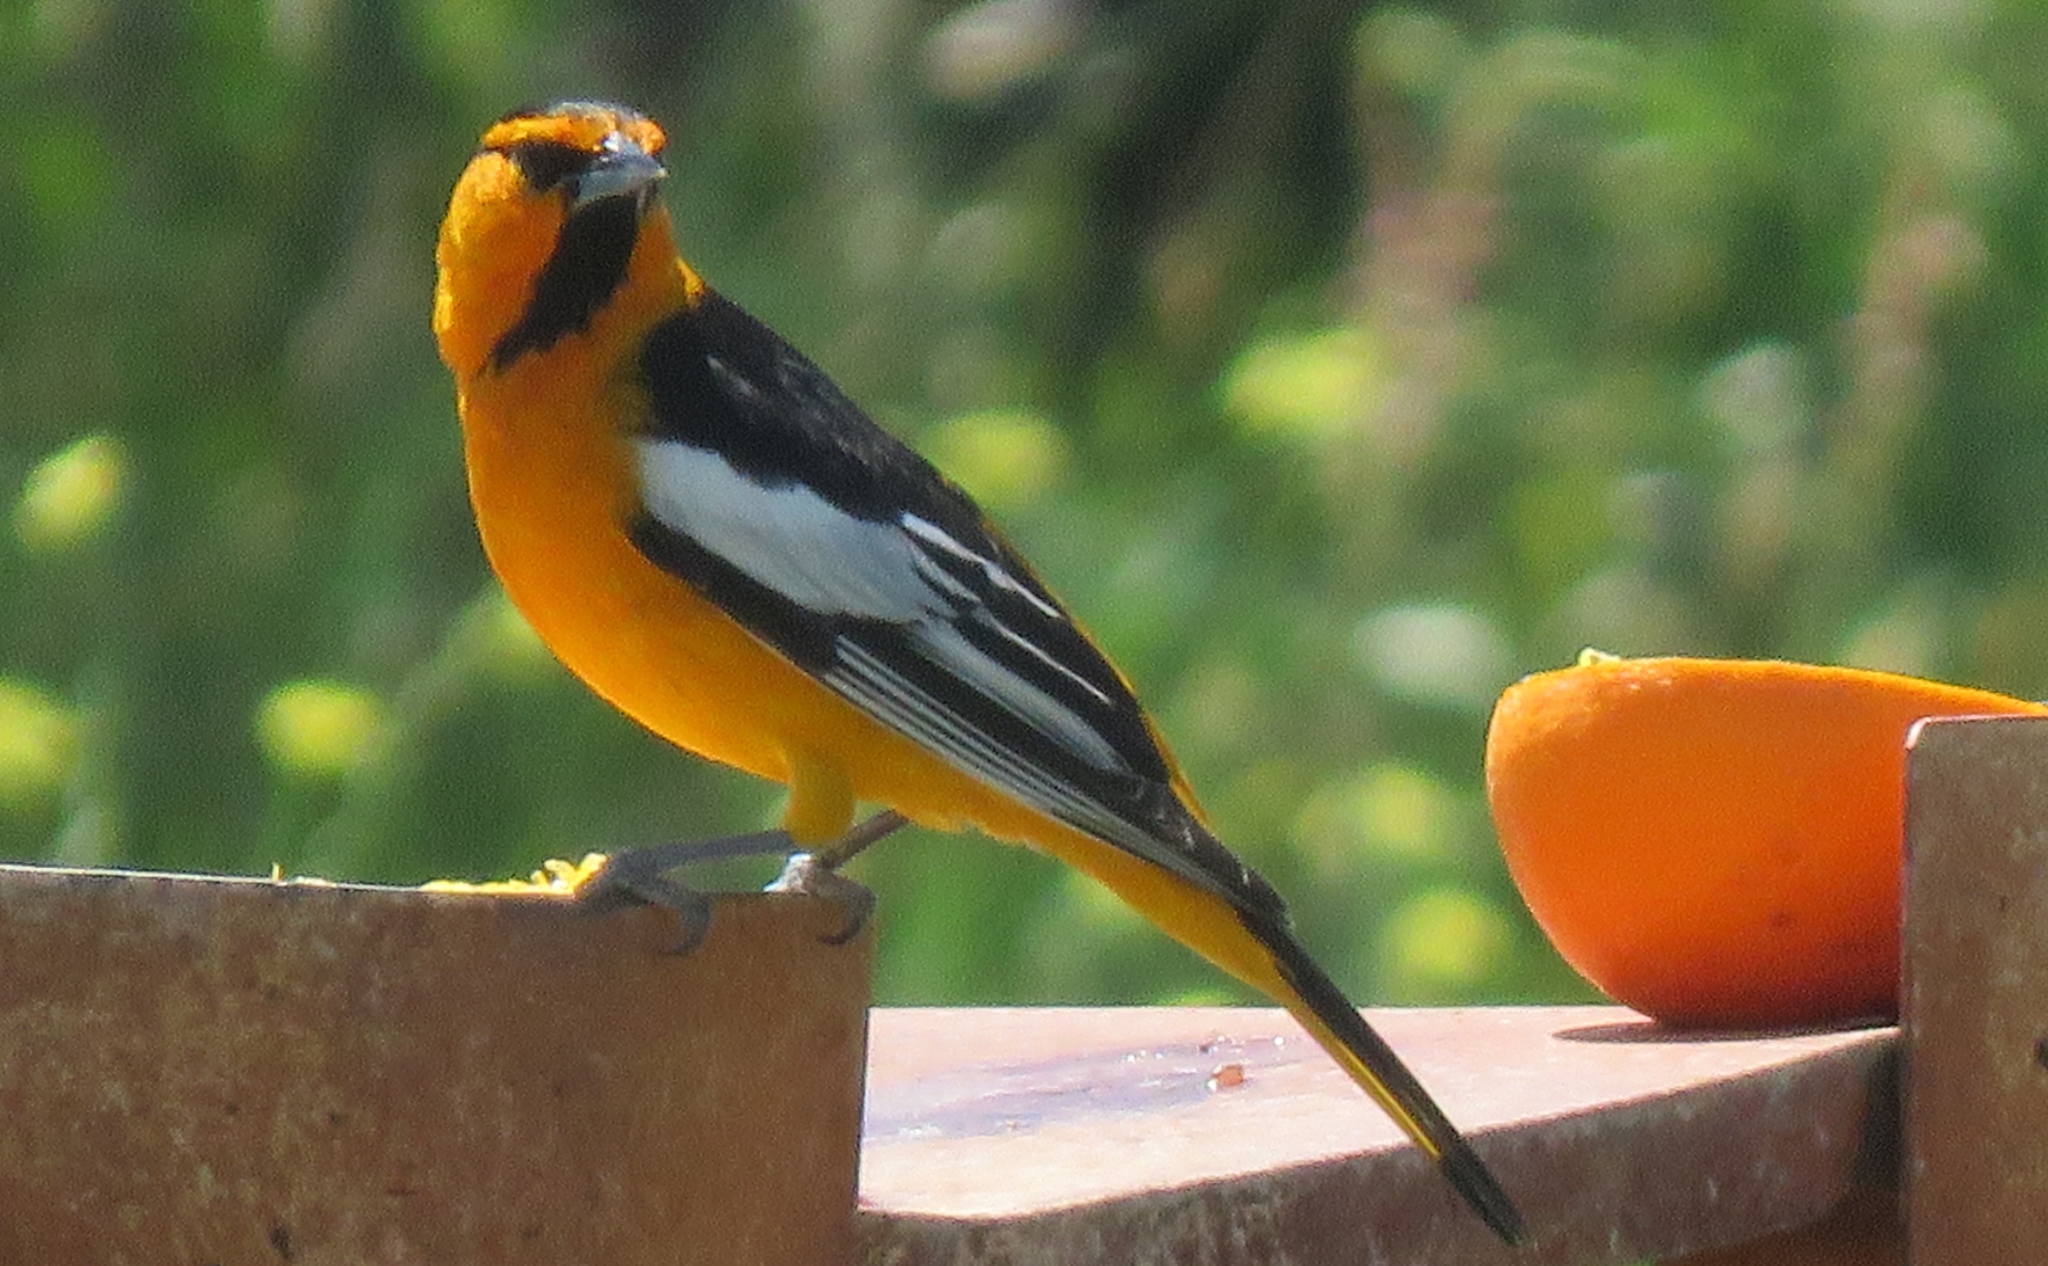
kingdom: Animalia
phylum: Chordata
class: Aves
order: Passeriformes
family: Icteridae
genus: Icterus
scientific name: Icterus bullockii
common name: Bullock's oriole
